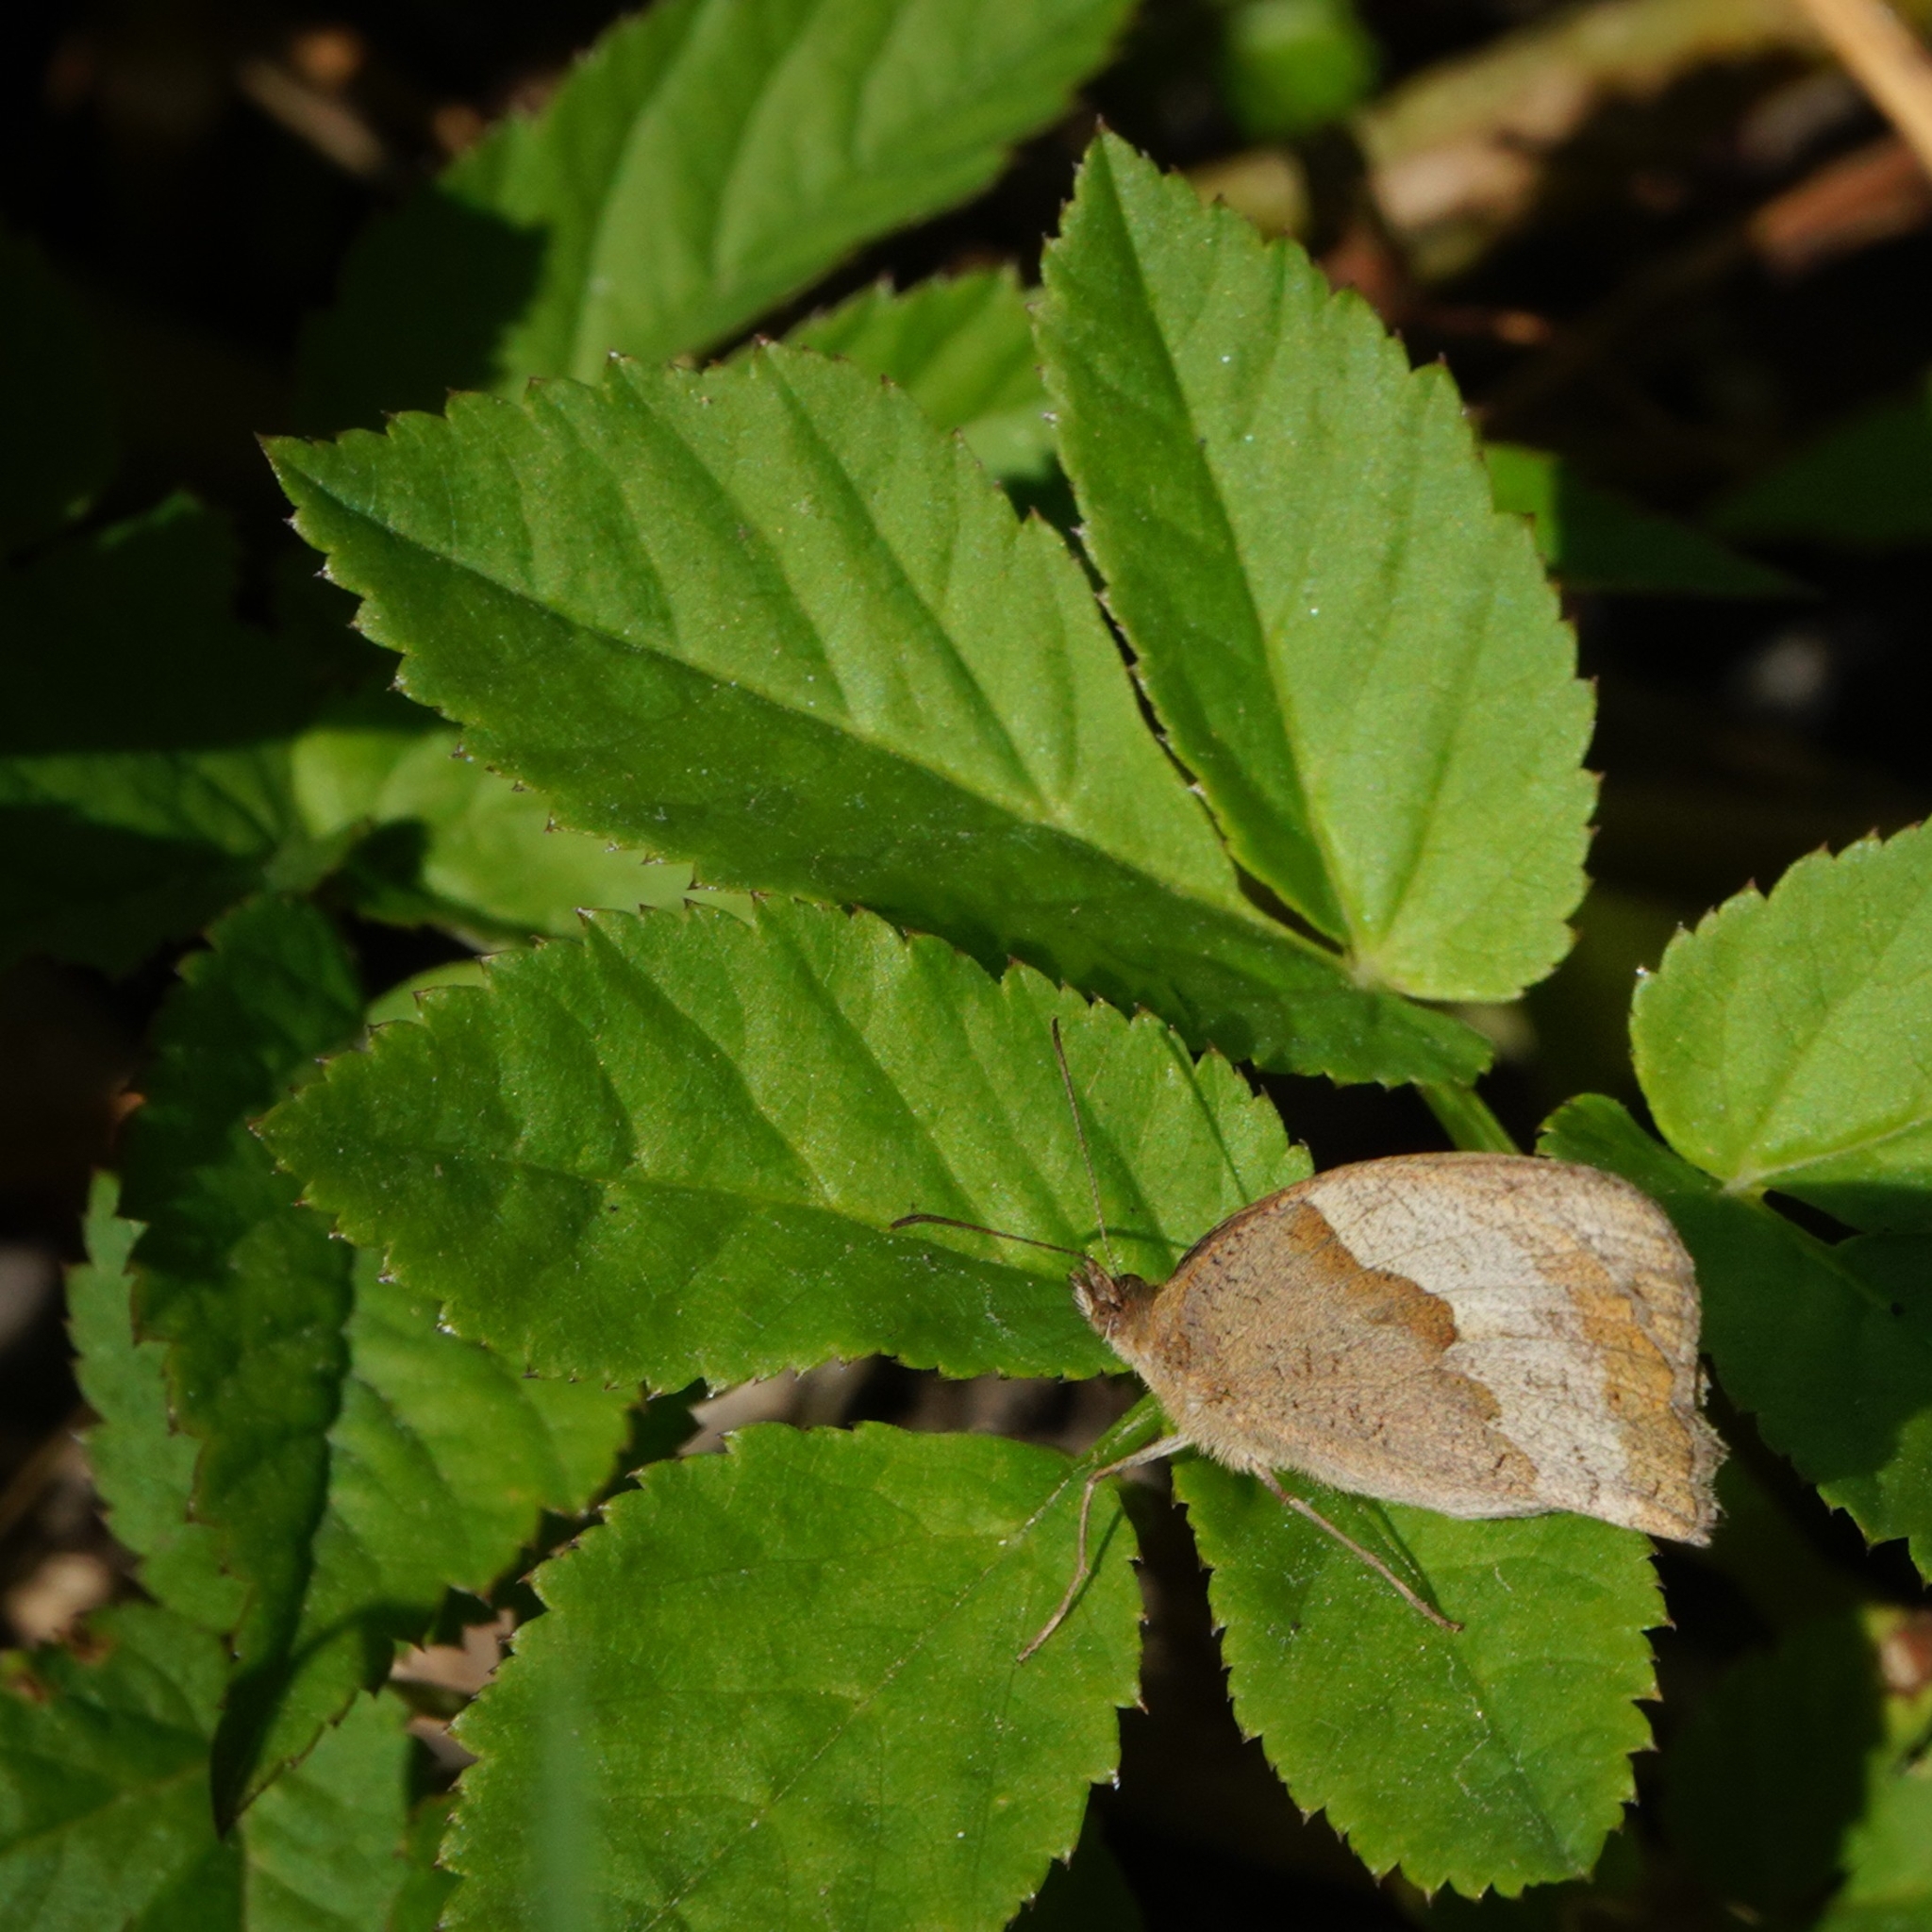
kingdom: Animalia
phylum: Arthropoda
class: Insecta
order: Lepidoptera
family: Nymphalidae
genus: Maniola
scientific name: Maniola jurtina
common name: Meadow brown
